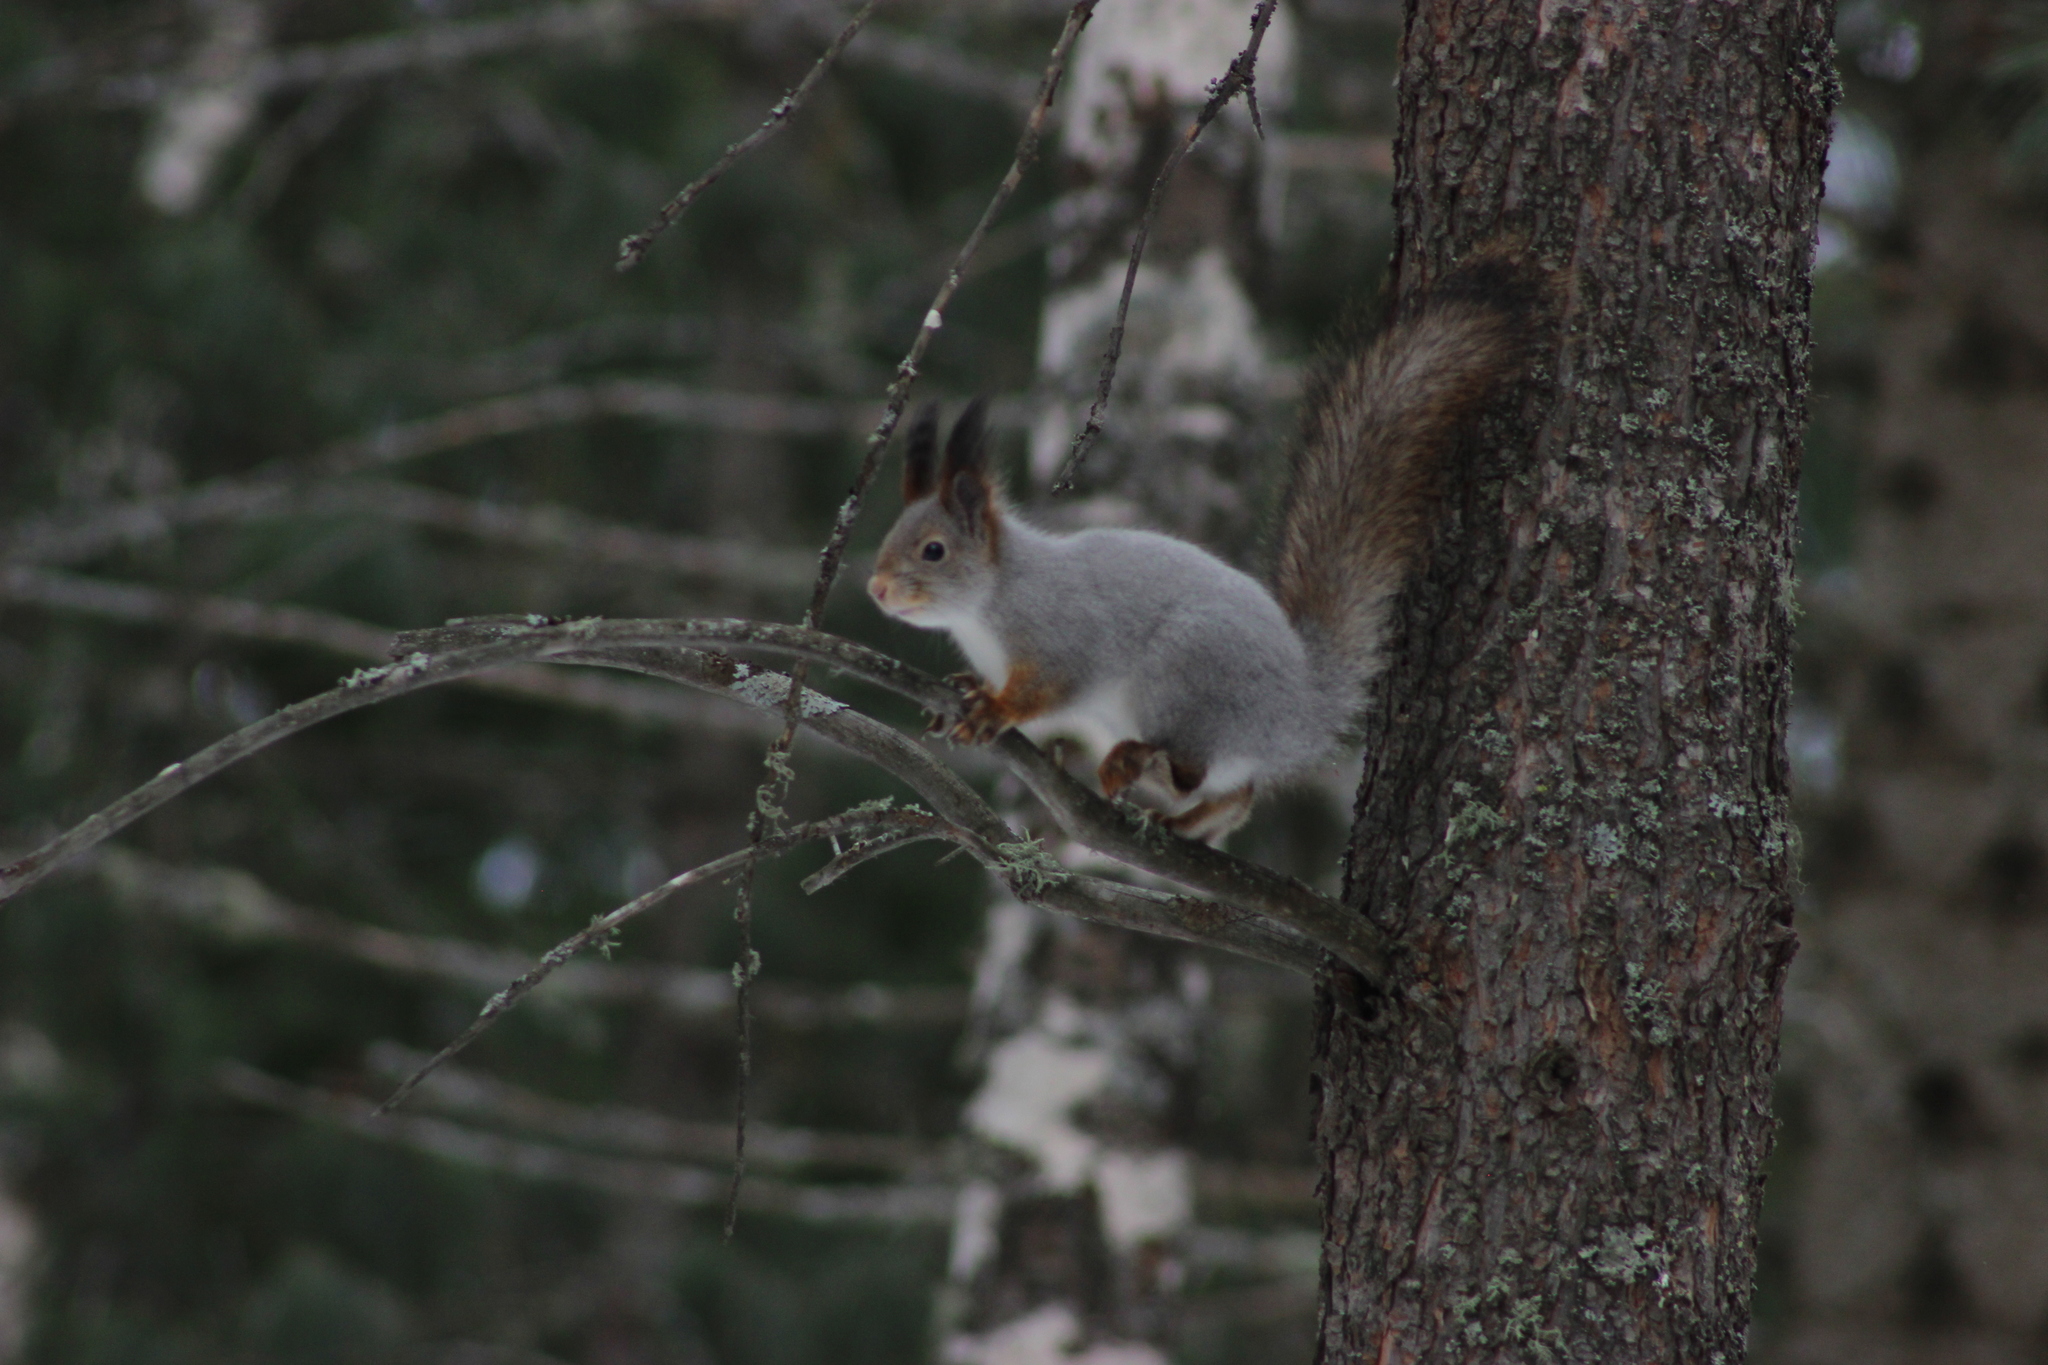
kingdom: Animalia
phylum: Chordata
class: Mammalia
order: Rodentia
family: Sciuridae
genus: Sciurus
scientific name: Sciurus vulgaris
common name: Eurasian red squirrel
